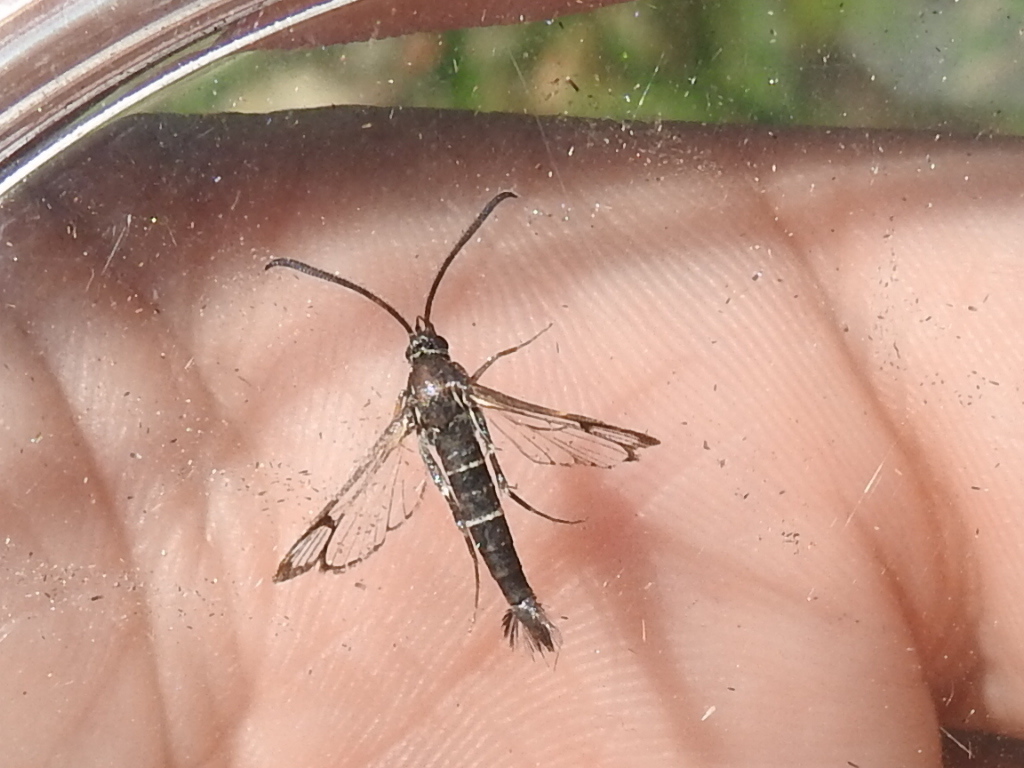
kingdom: Animalia
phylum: Arthropoda
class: Insecta
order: Lepidoptera
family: Sesiidae
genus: Carmenta
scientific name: Carmenta engelhardti
